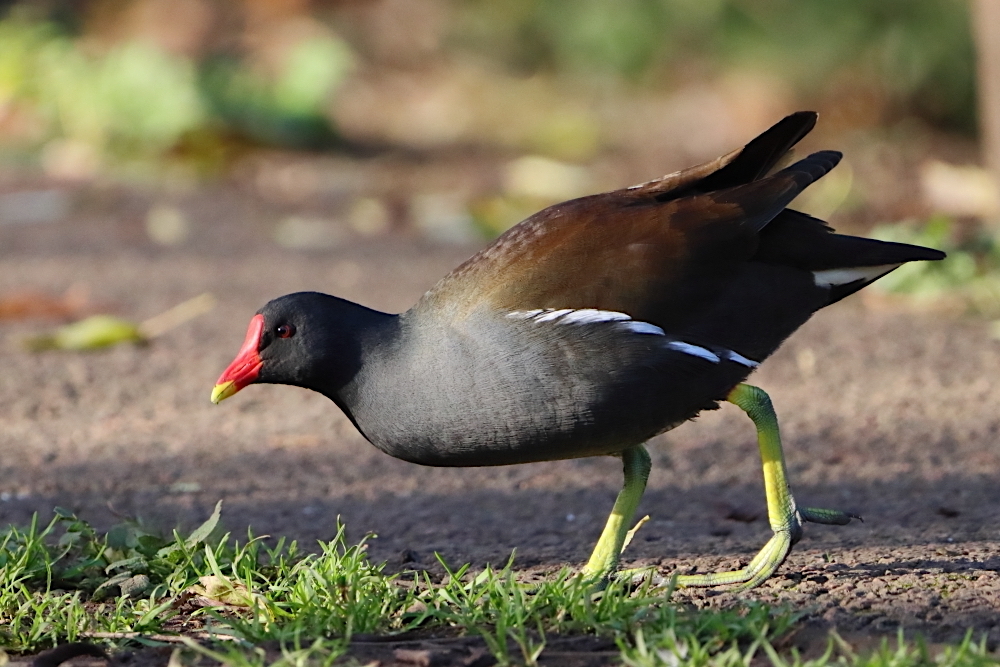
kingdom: Animalia
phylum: Chordata
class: Aves
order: Gruiformes
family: Rallidae
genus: Gallinula
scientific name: Gallinula chloropus
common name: Common moorhen
